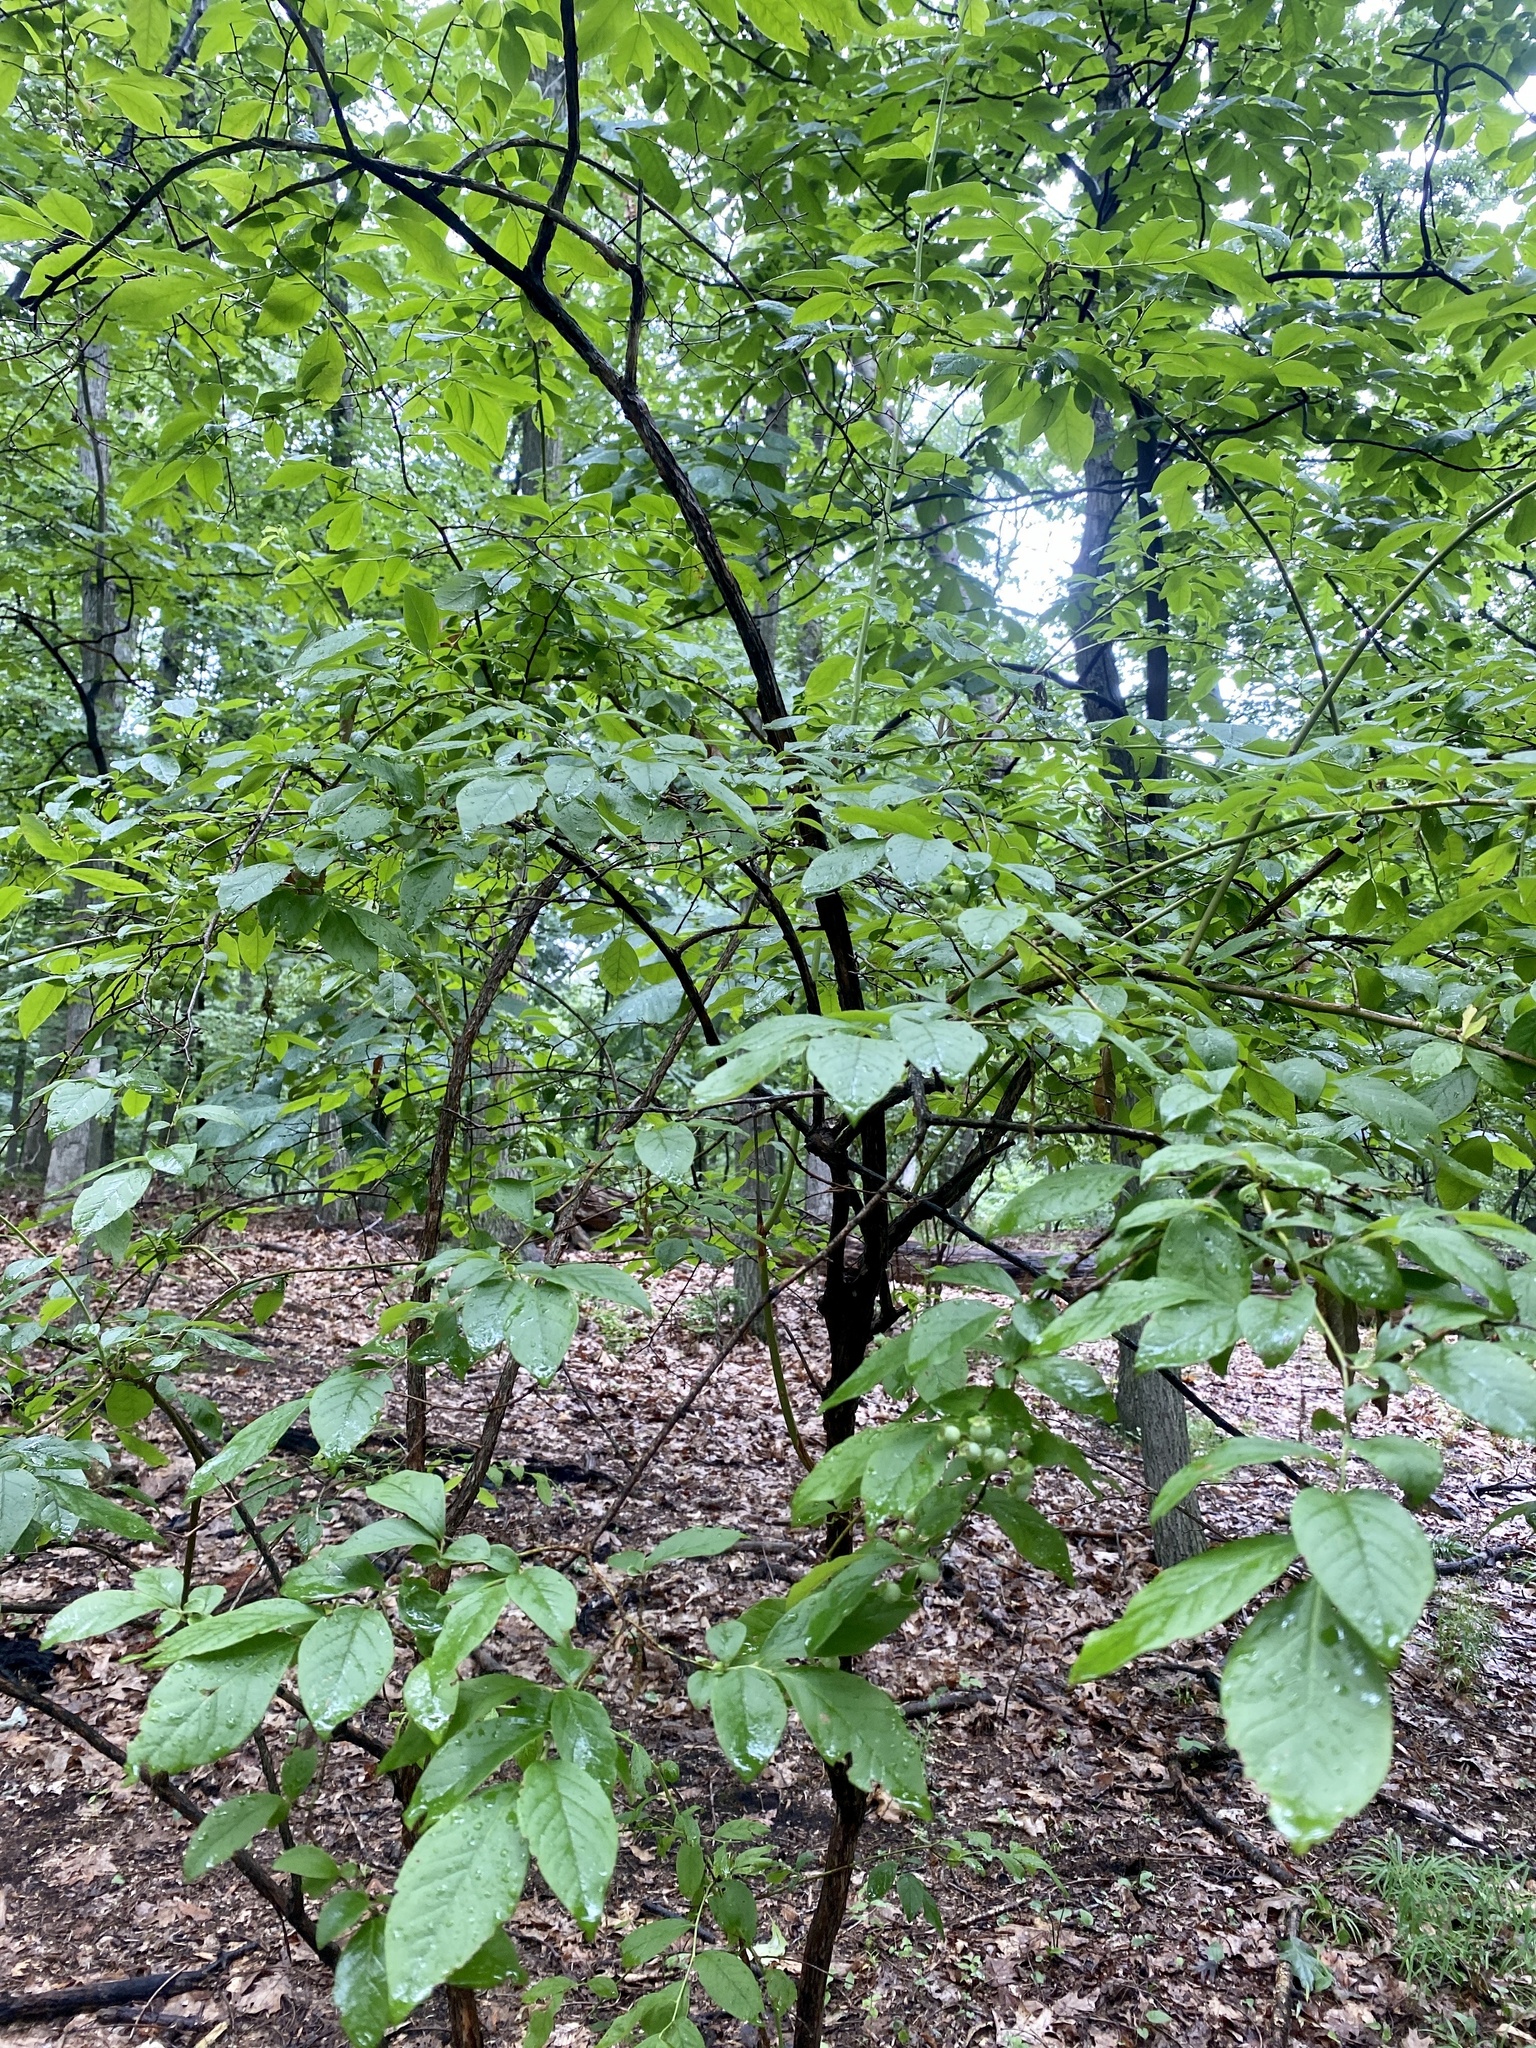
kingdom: Plantae
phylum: Tracheophyta
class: Magnoliopsida
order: Ericales
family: Ericaceae
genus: Vaccinium
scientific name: Vaccinium corymbosum
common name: Blueberry
